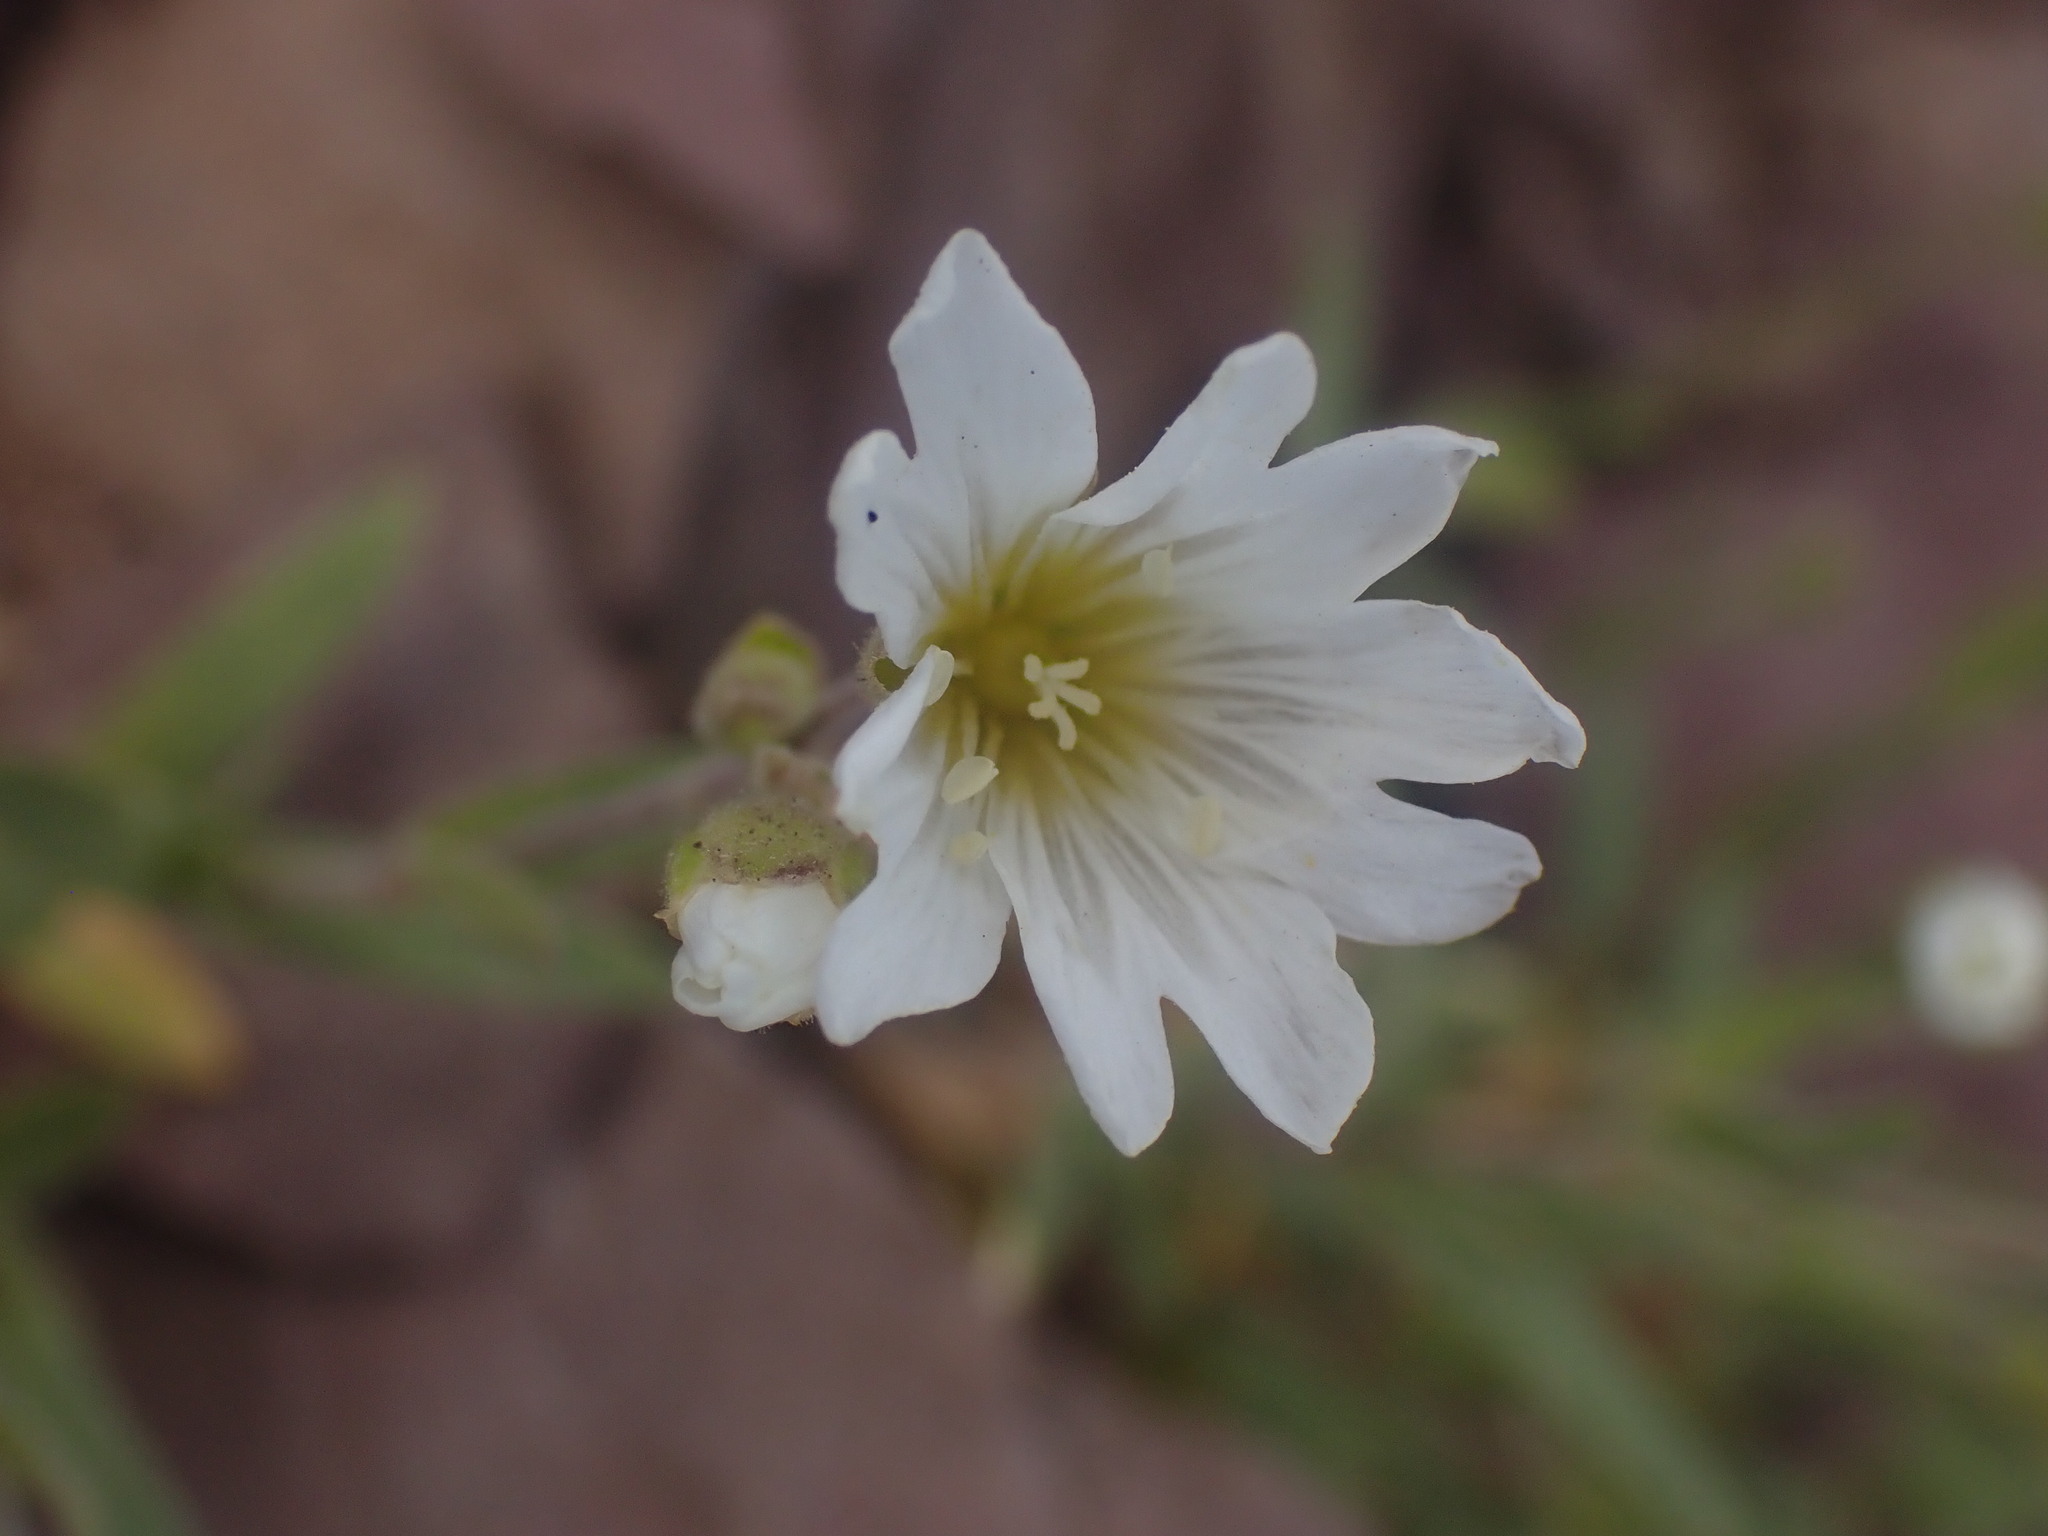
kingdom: Plantae
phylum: Tracheophyta
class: Magnoliopsida
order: Caryophyllales
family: Caryophyllaceae
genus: Cerastium
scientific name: Cerastium arvense
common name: Field mouse-ear
